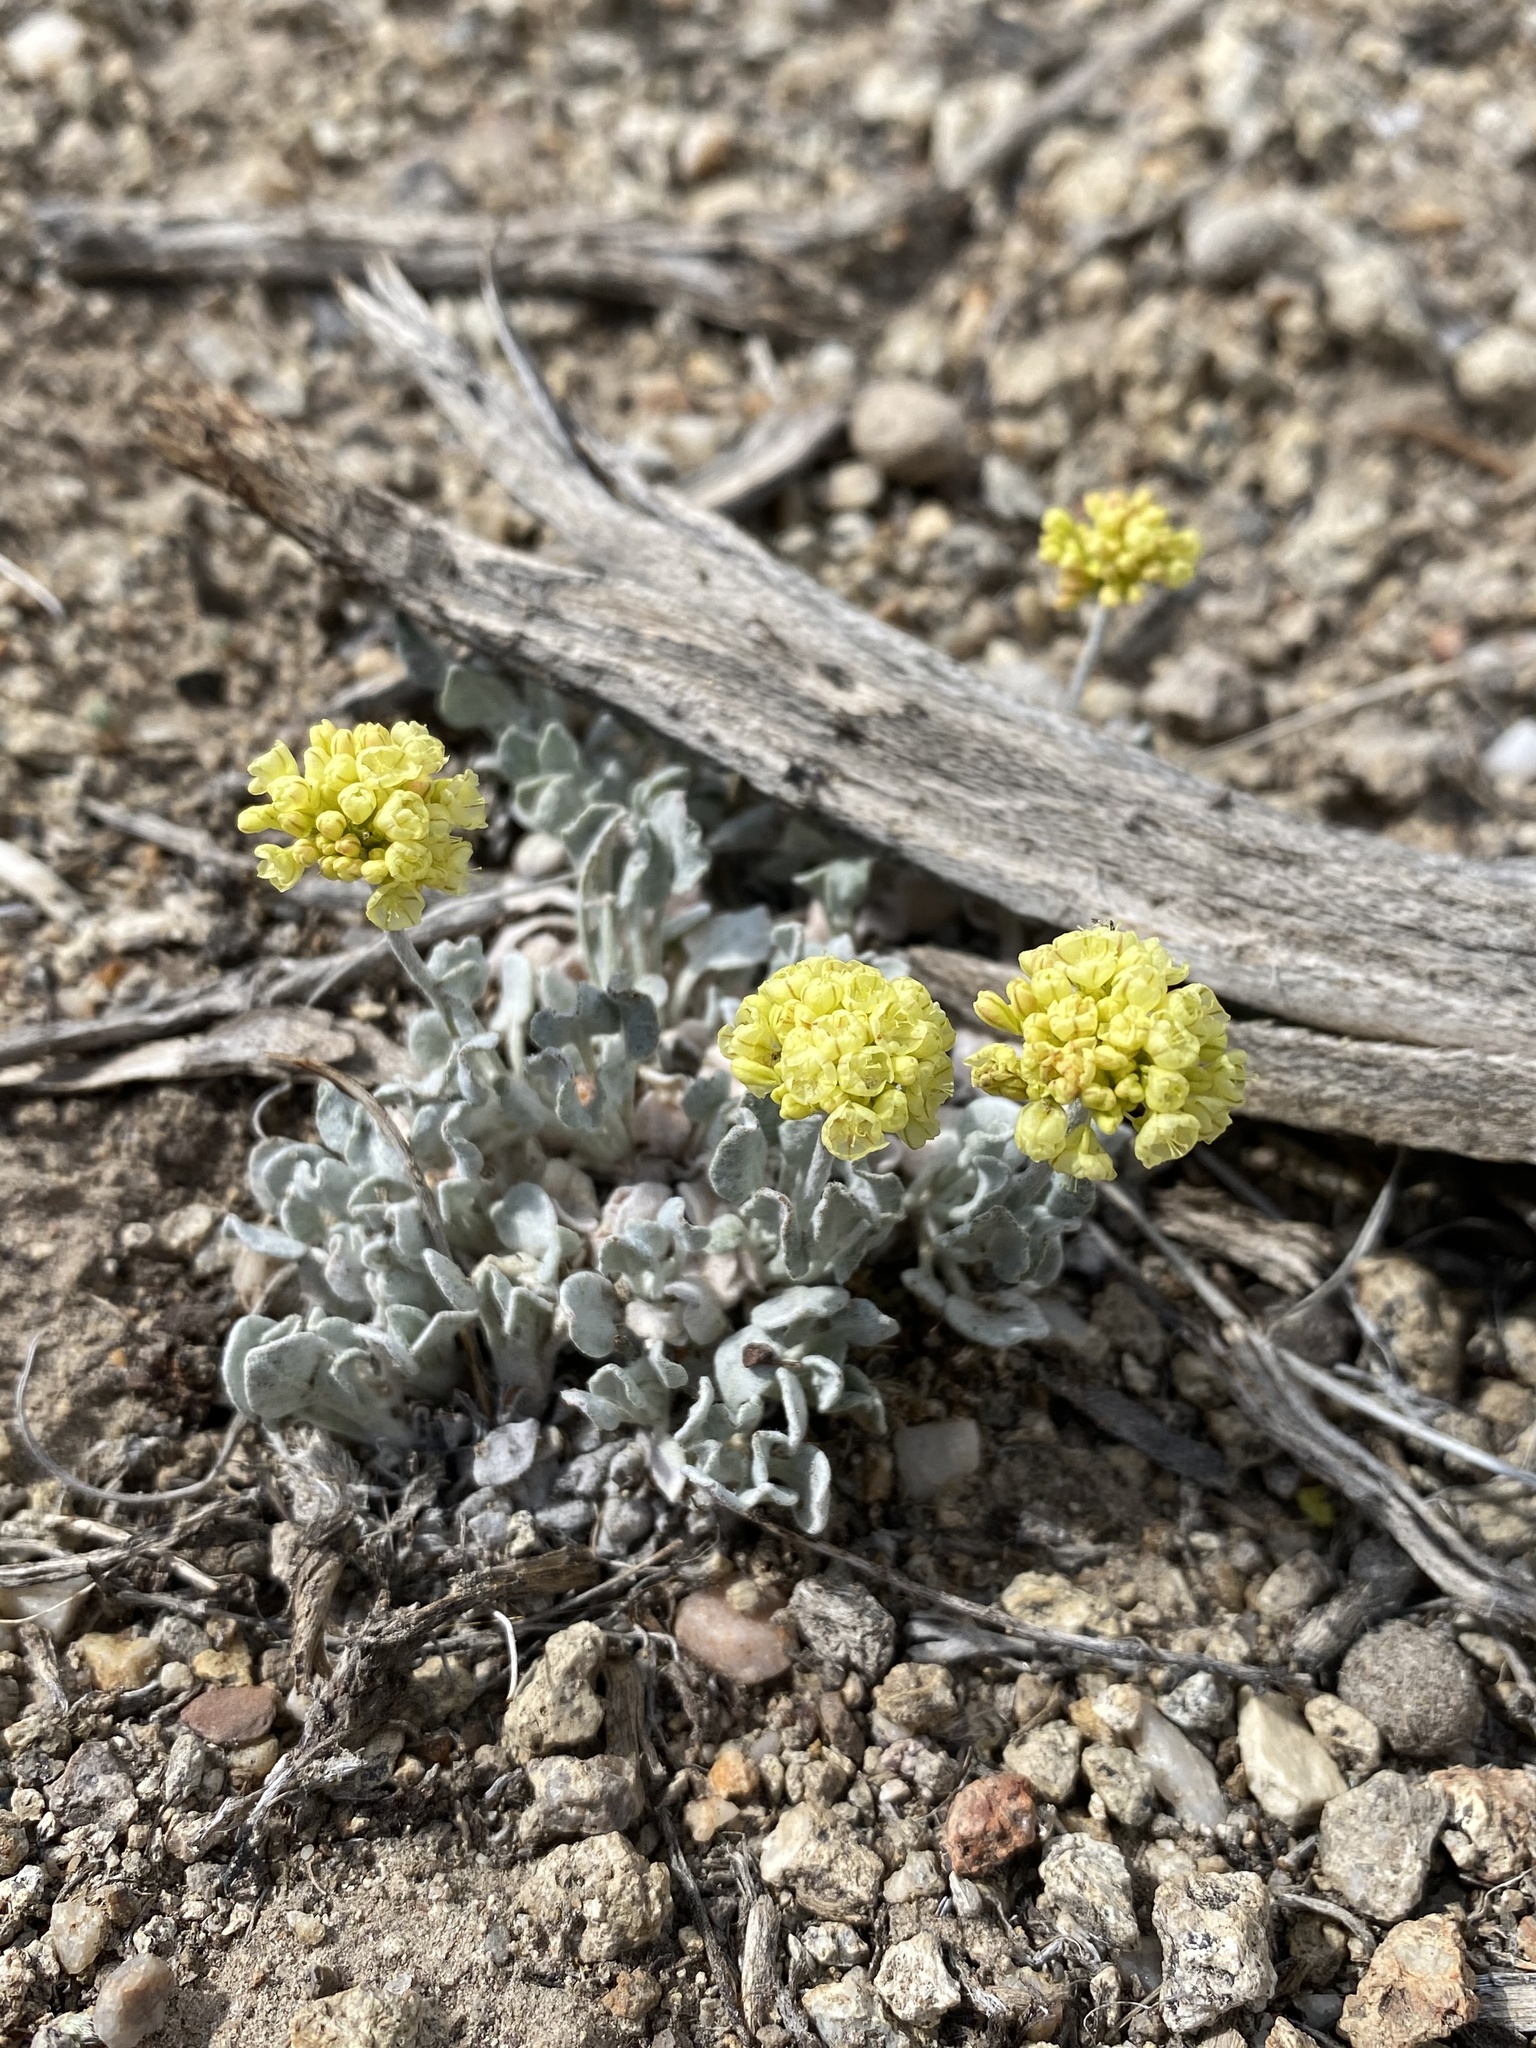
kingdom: Plantae
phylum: Tracheophyta
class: Magnoliopsida
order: Caryophyllales
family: Polygonaceae
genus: Eriogonum
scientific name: Eriogonum ovalifolium
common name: Cushion buckwheat
